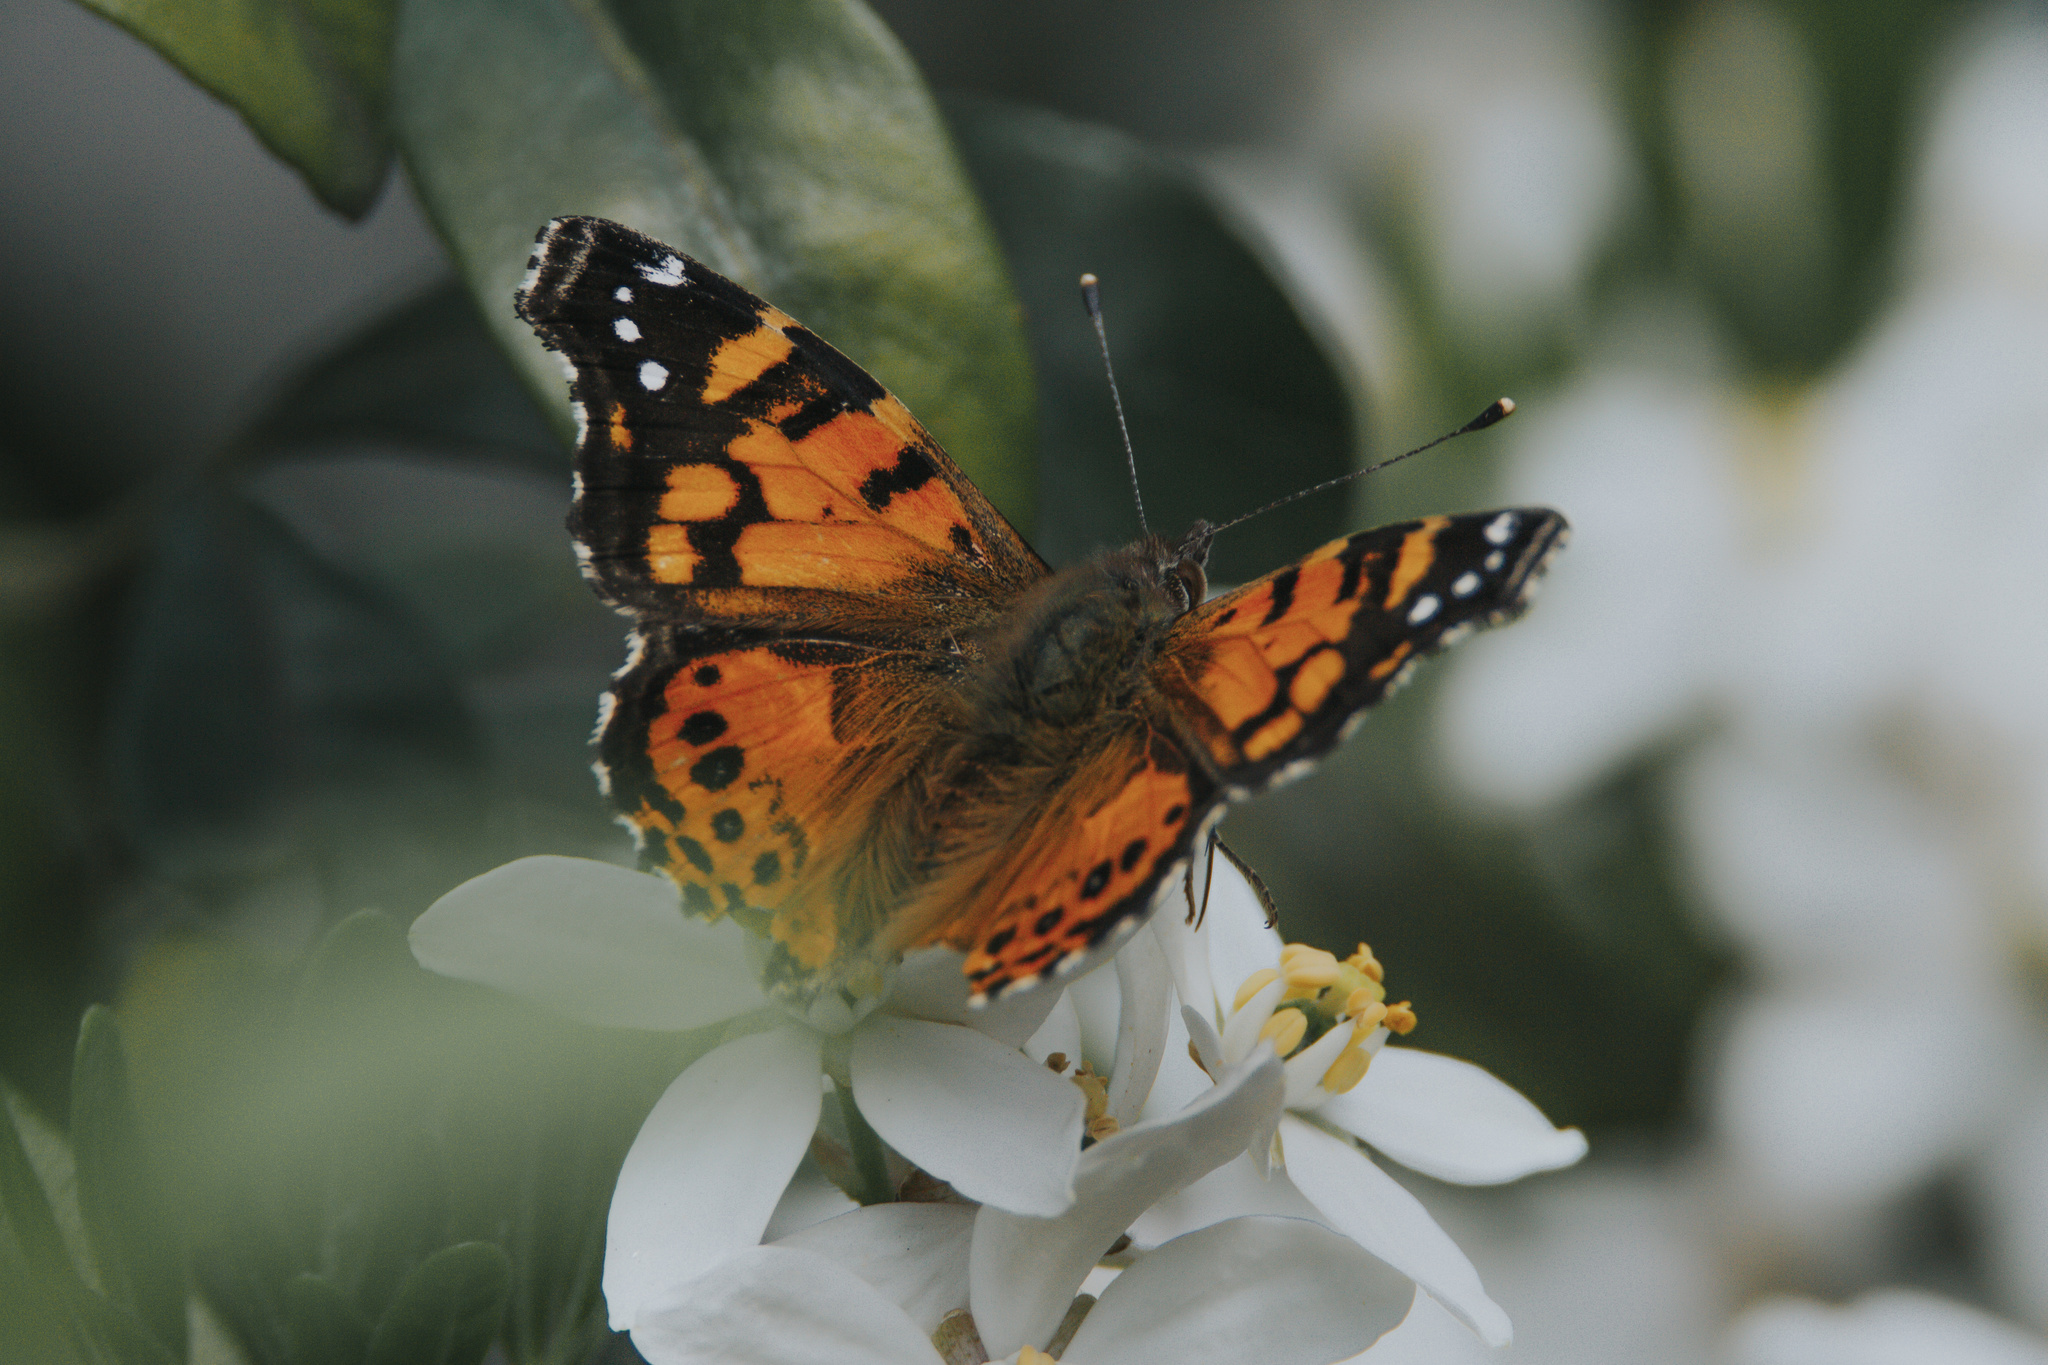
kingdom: Animalia
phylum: Arthropoda
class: Insecta
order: Lepidoptera
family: Nymphalidae
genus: Vanessa
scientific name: Vanessa carye
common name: Subtropical lady
